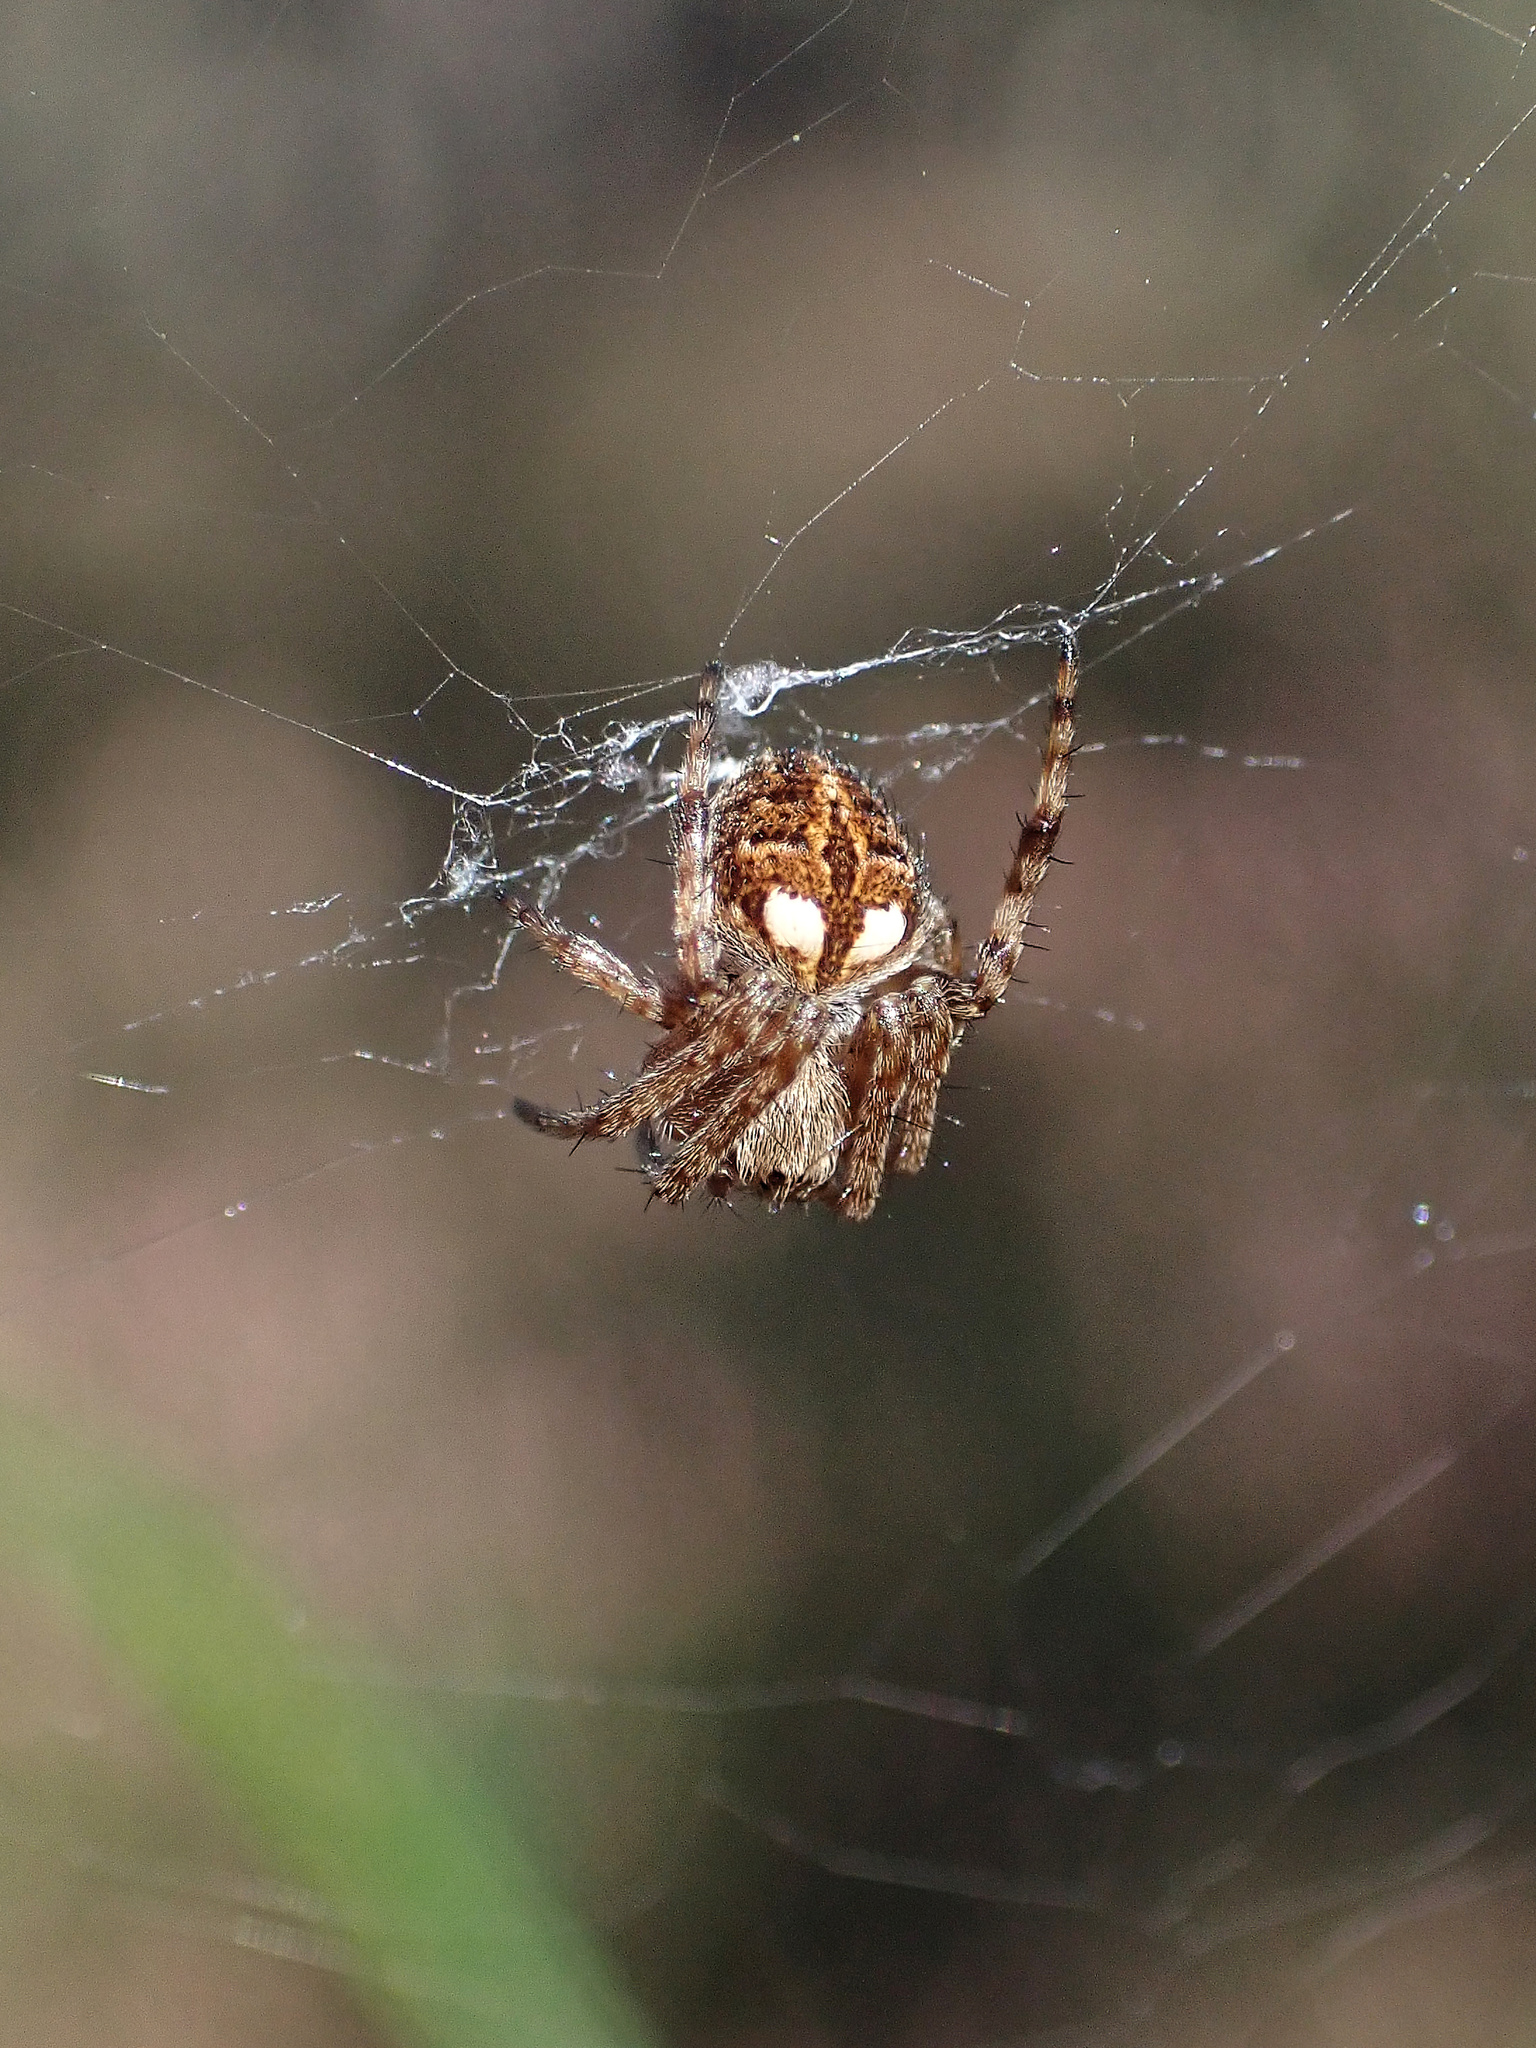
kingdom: Animalia
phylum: Arthropoda
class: Arachnida
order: Araneae
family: Araneidae
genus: Agalenatea
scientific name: Agalenatea redii
